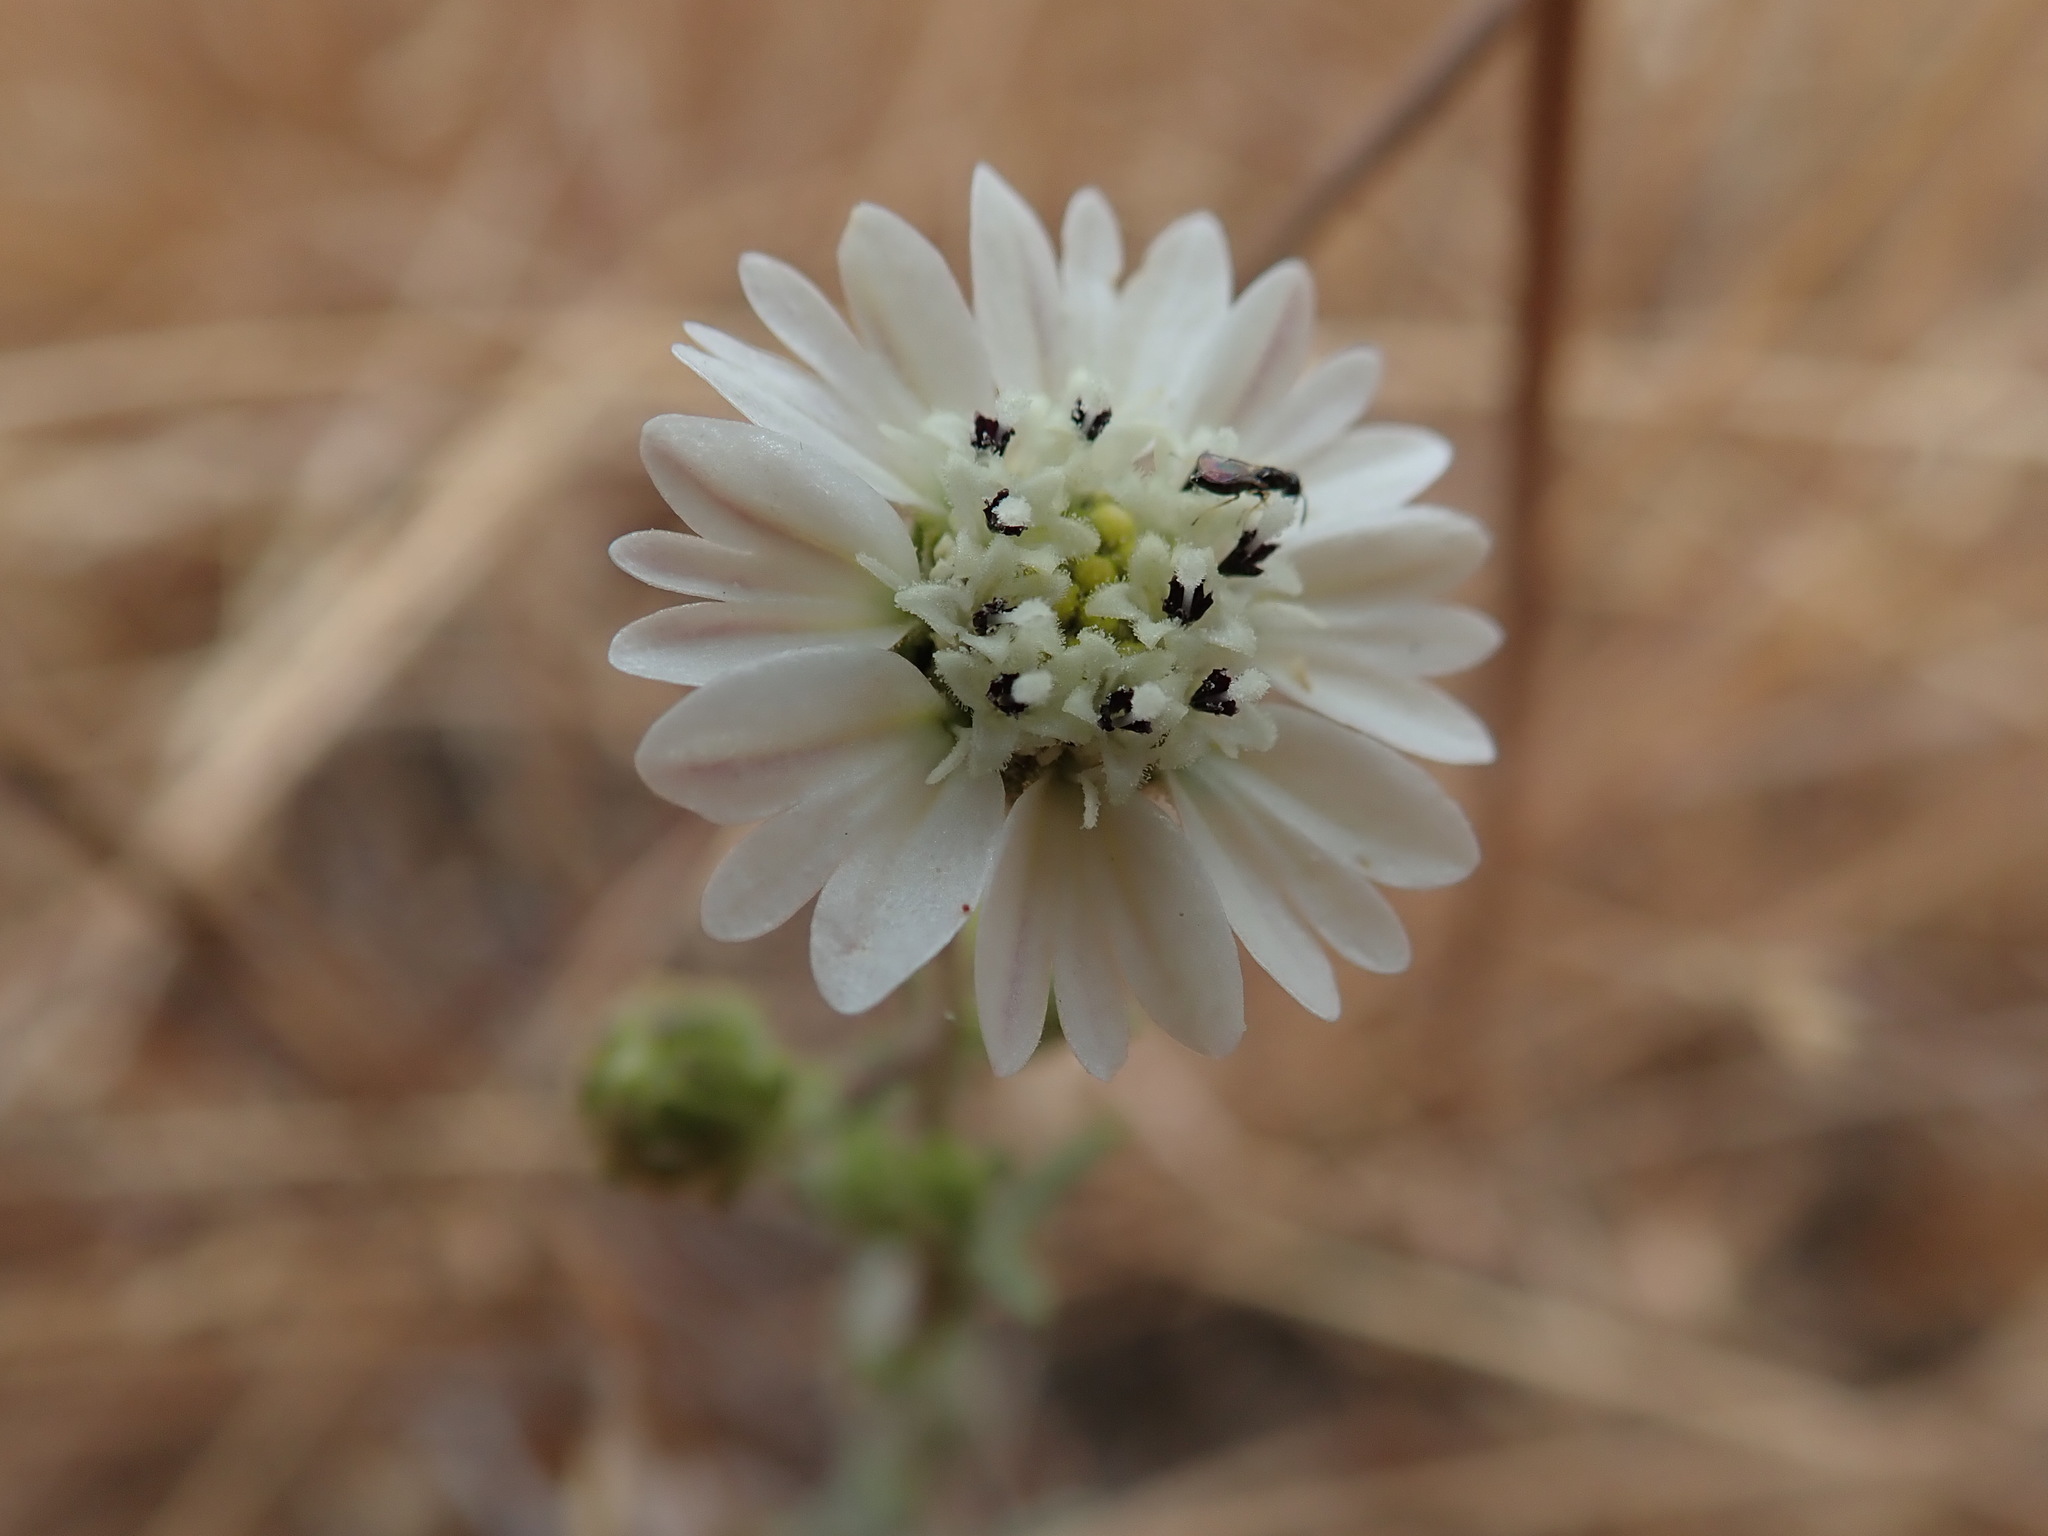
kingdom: Plantae
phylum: Tracheophyta
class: Magnoliopsida
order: Asterales
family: Asteraceae
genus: Hemizonia
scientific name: Hemizonia congesta
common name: Hayfield tarweed
